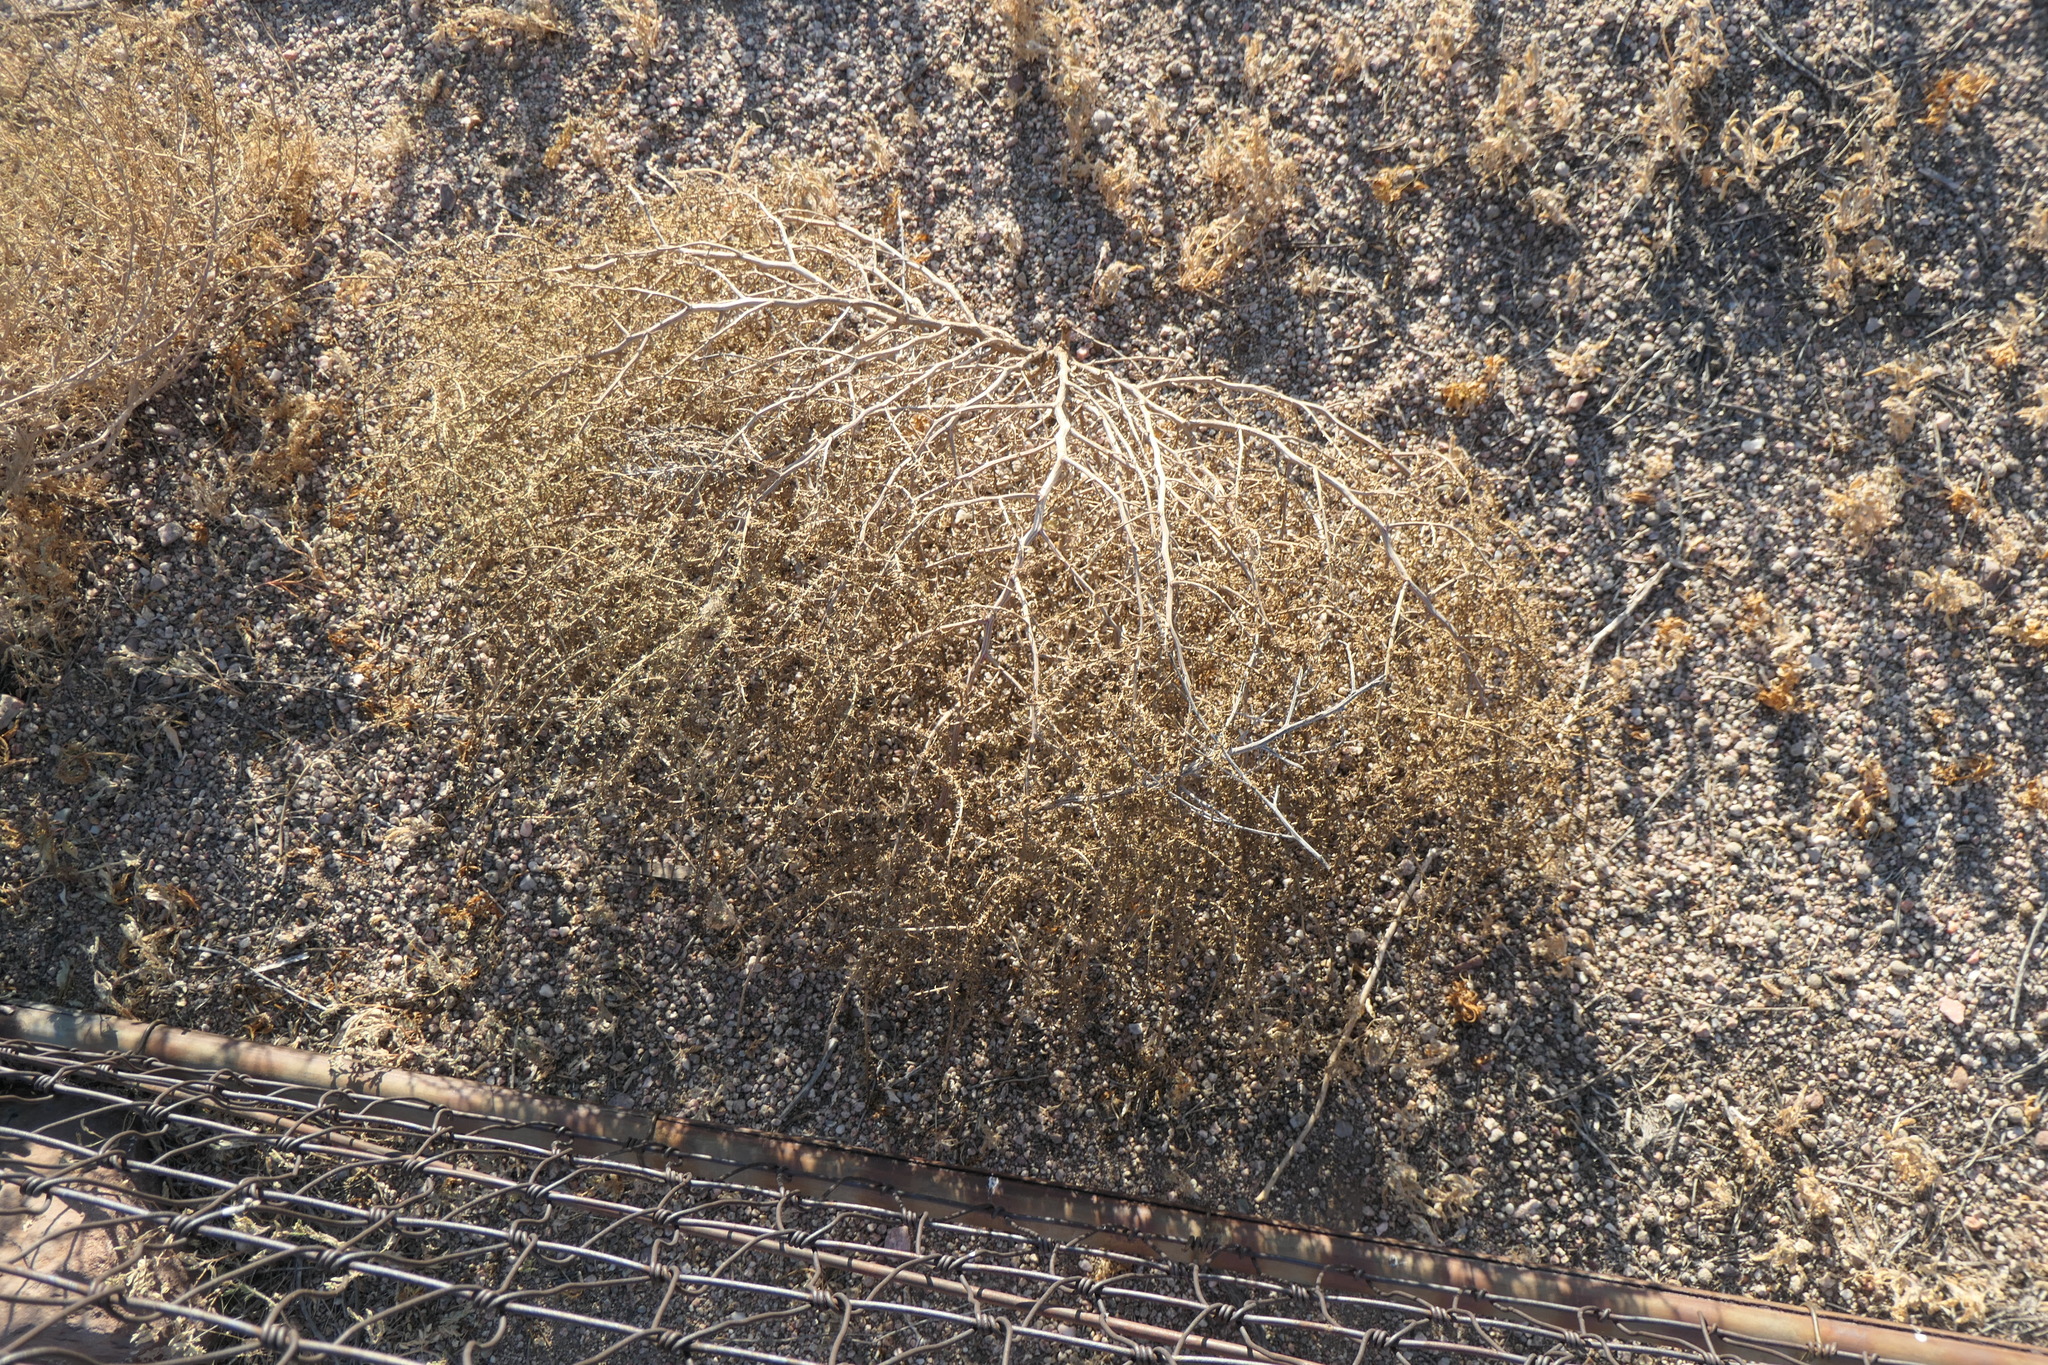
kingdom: Plantae
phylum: Tracheophyta
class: Magnoliopsida
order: Caryophyllales
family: Amaranthaceae
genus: Salsola
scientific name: Salsola tragus
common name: Prickly russian thistle
